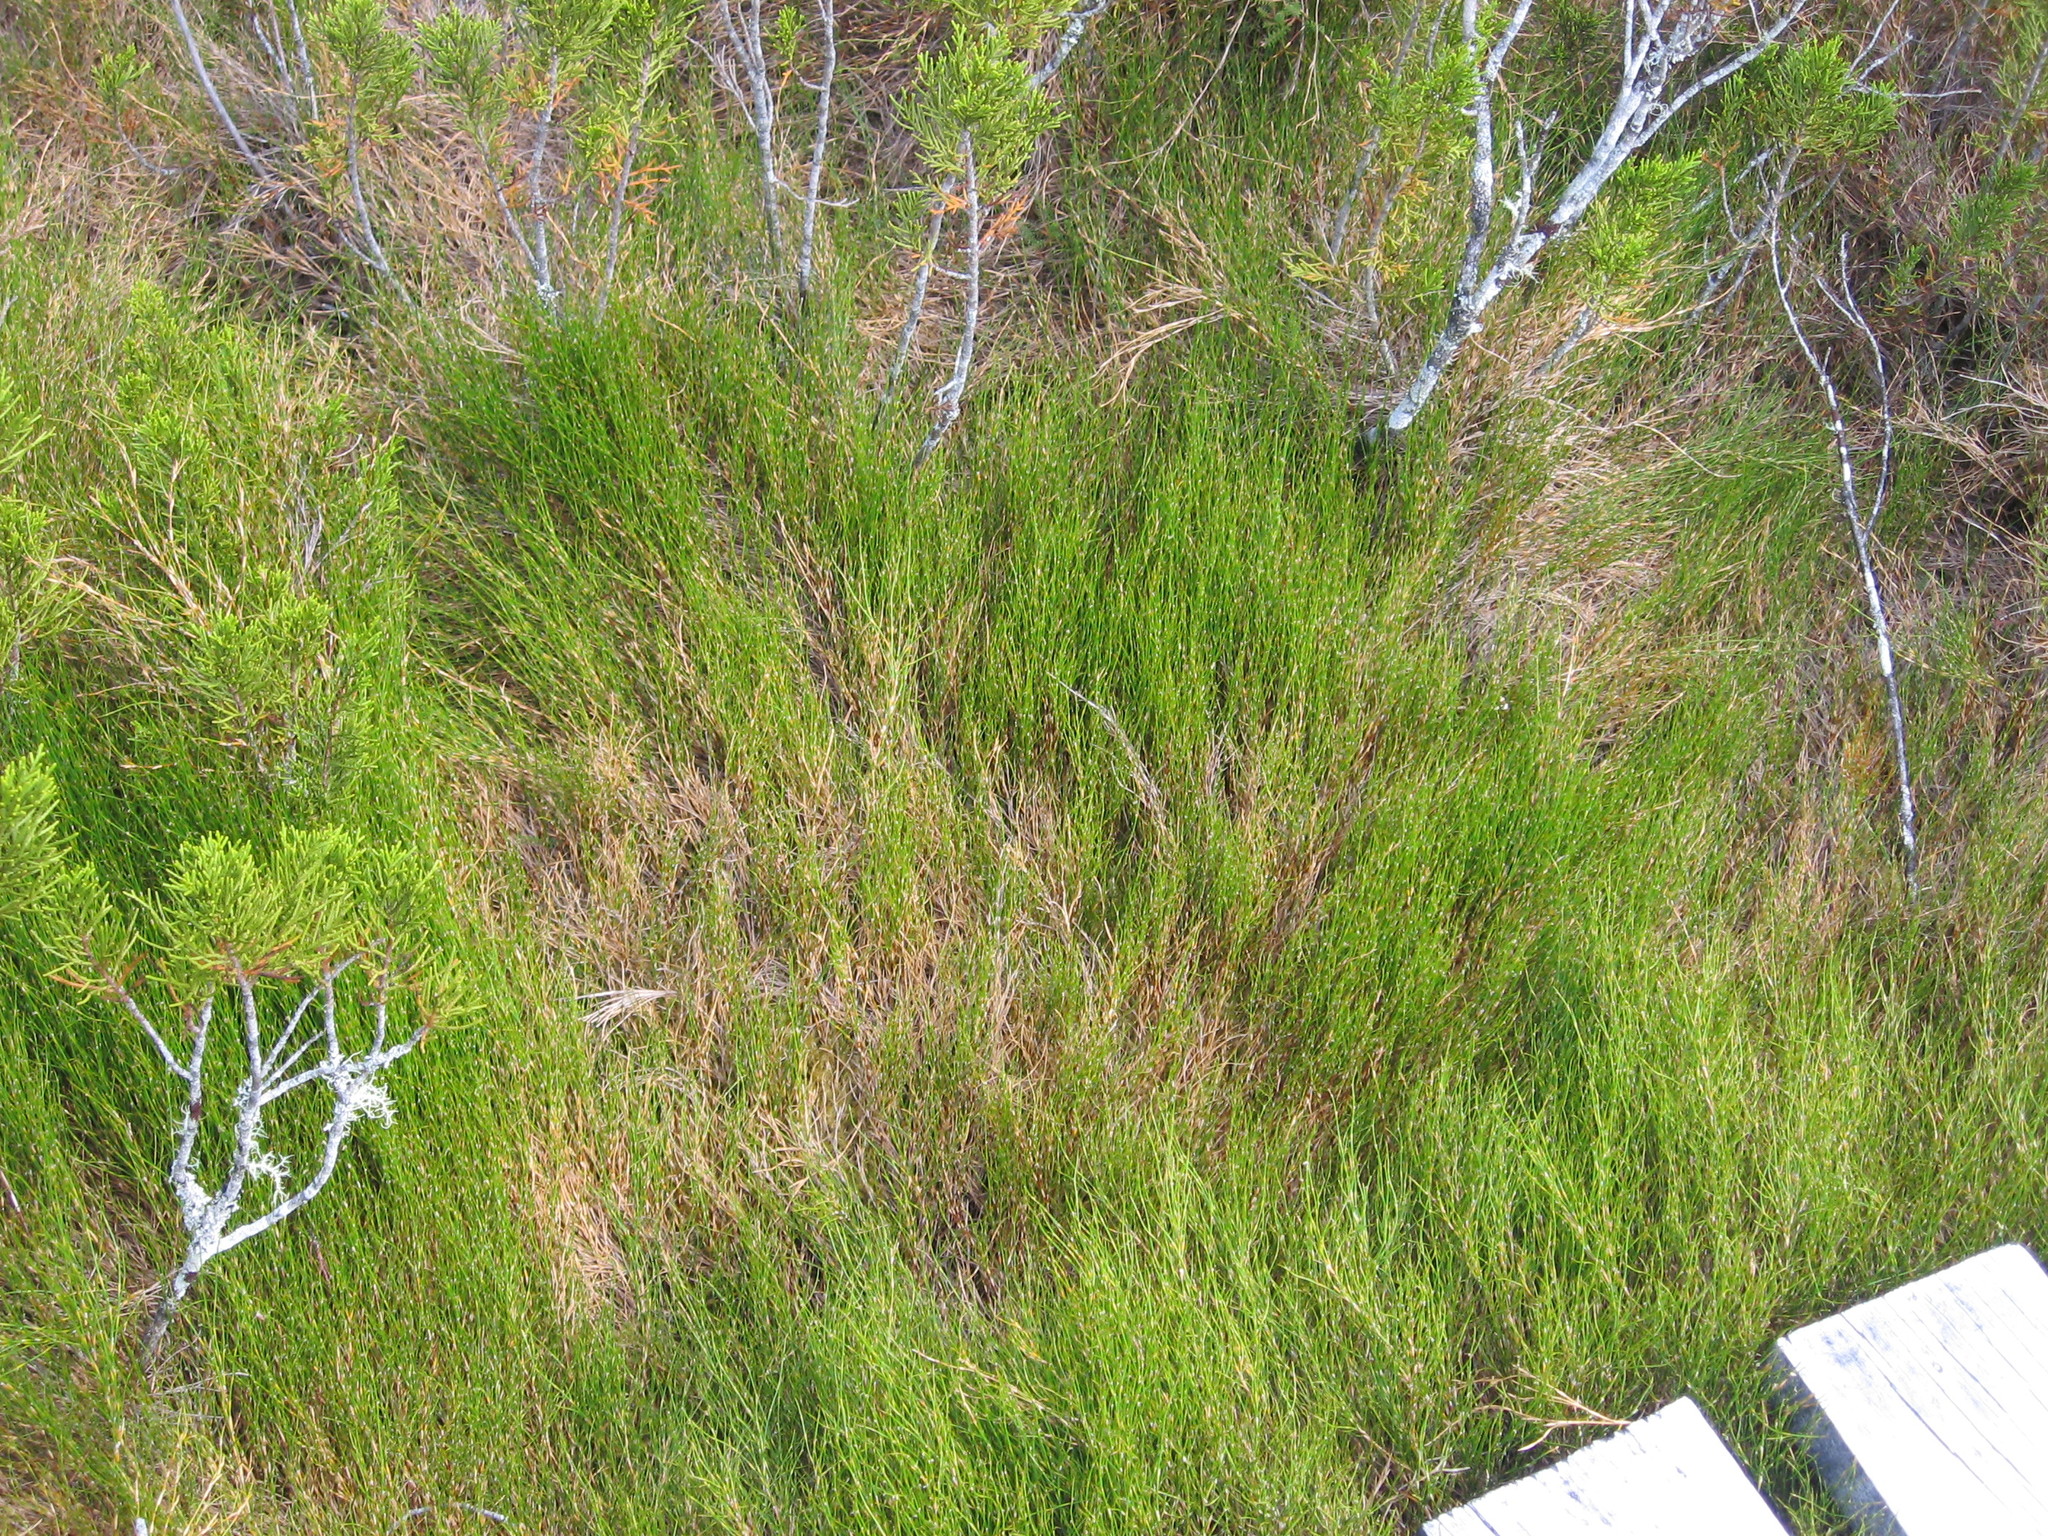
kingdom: Plantae
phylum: Tracheophyta
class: Liliopsida
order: Poales
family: Restionaceae
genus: Empodisma
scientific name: Empodisma minus
